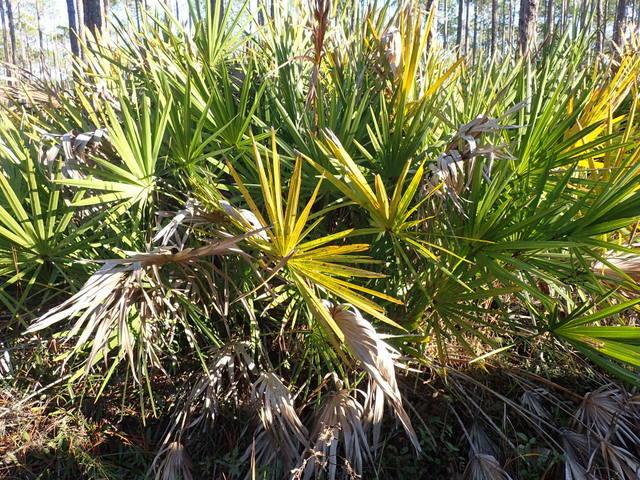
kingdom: Plantae
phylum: Tracheophyta
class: Liliopsida
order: Arecales
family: Arecaceae
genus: Serenoa
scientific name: Serenoa repens
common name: Saw-palmetto
